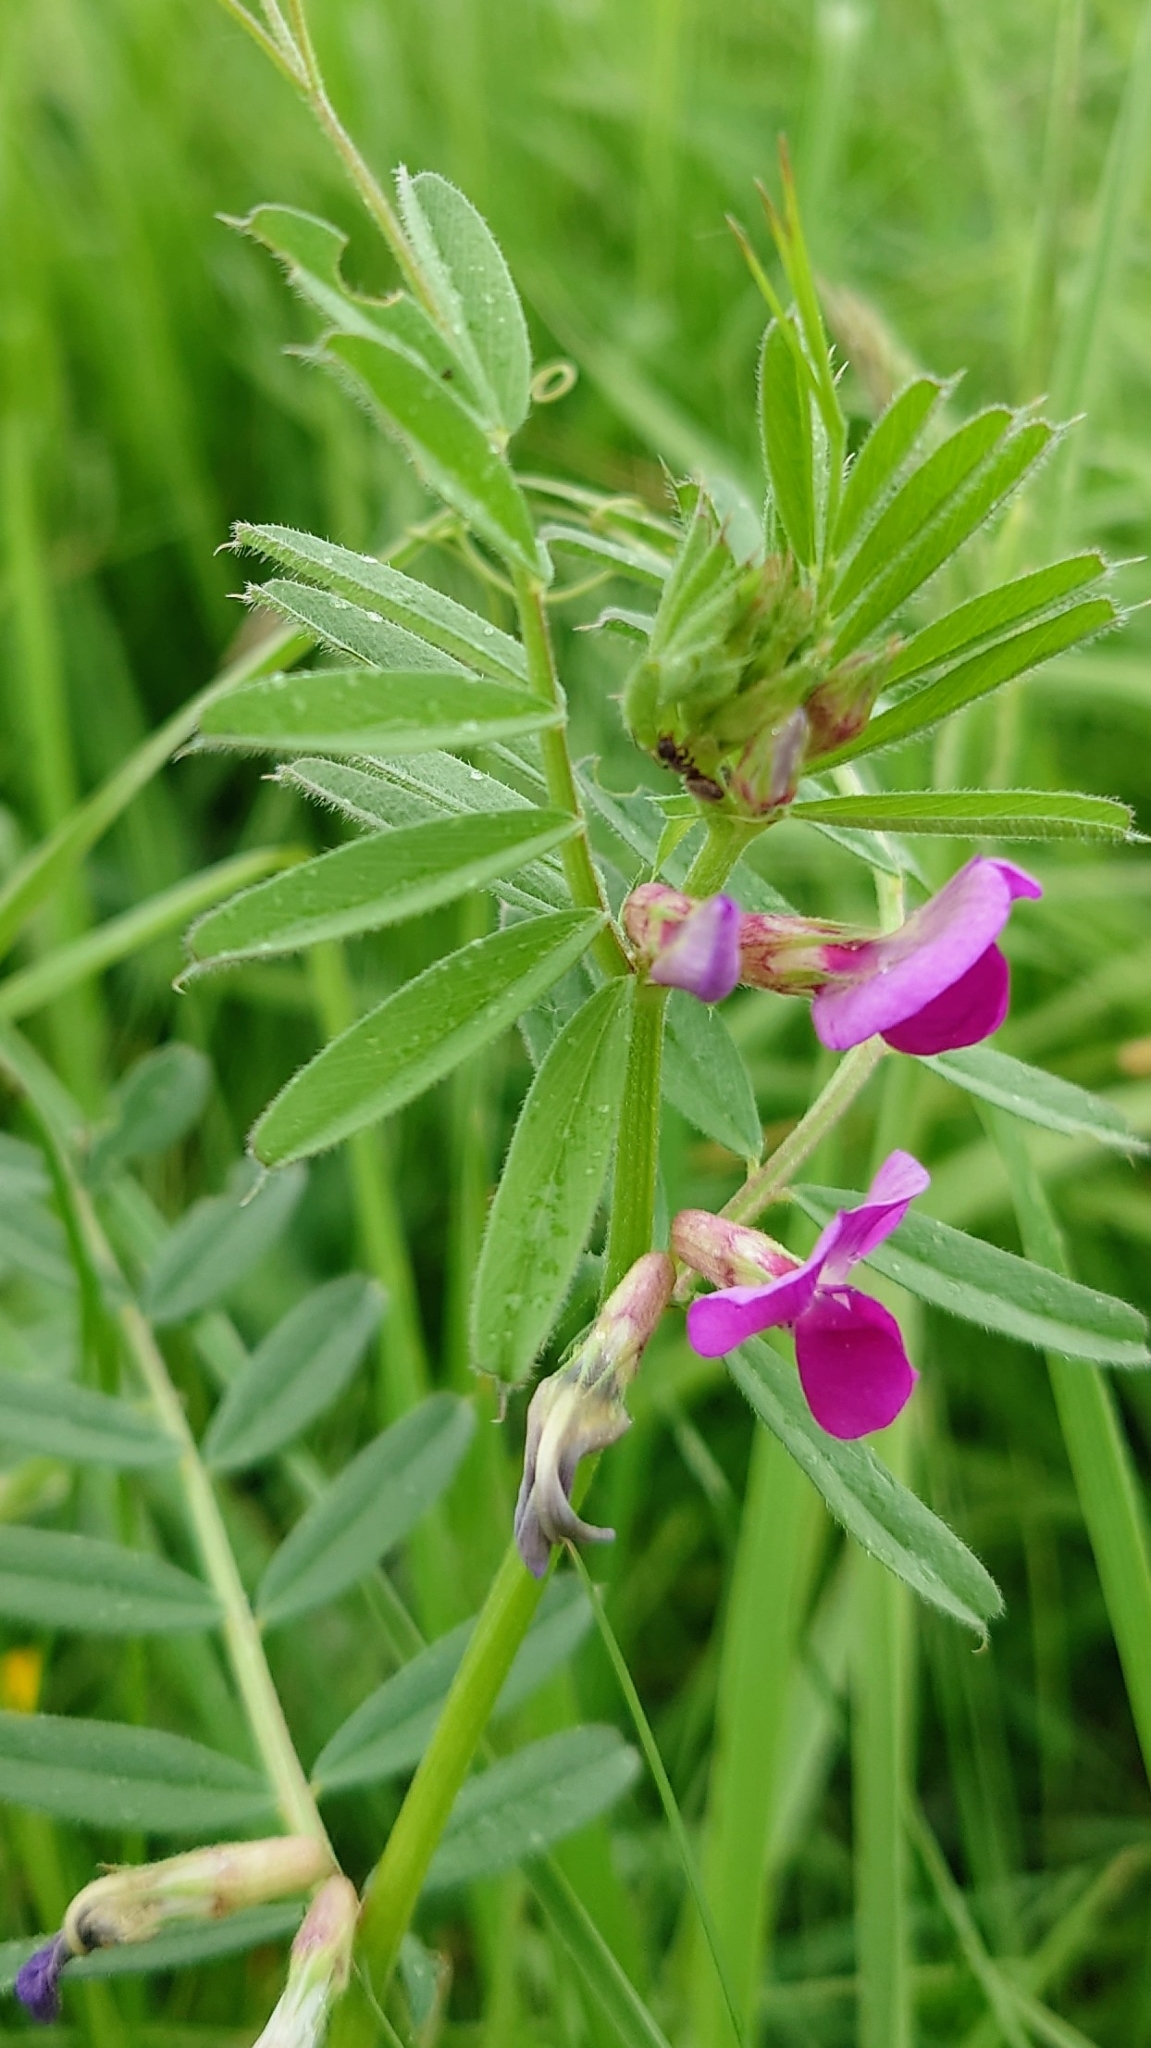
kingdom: Plantae
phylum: Tracheophyta
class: Magnoliopsida
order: Fabales
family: Fabaceae
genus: Vicia
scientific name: Vicia sativa
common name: Garden vetch
